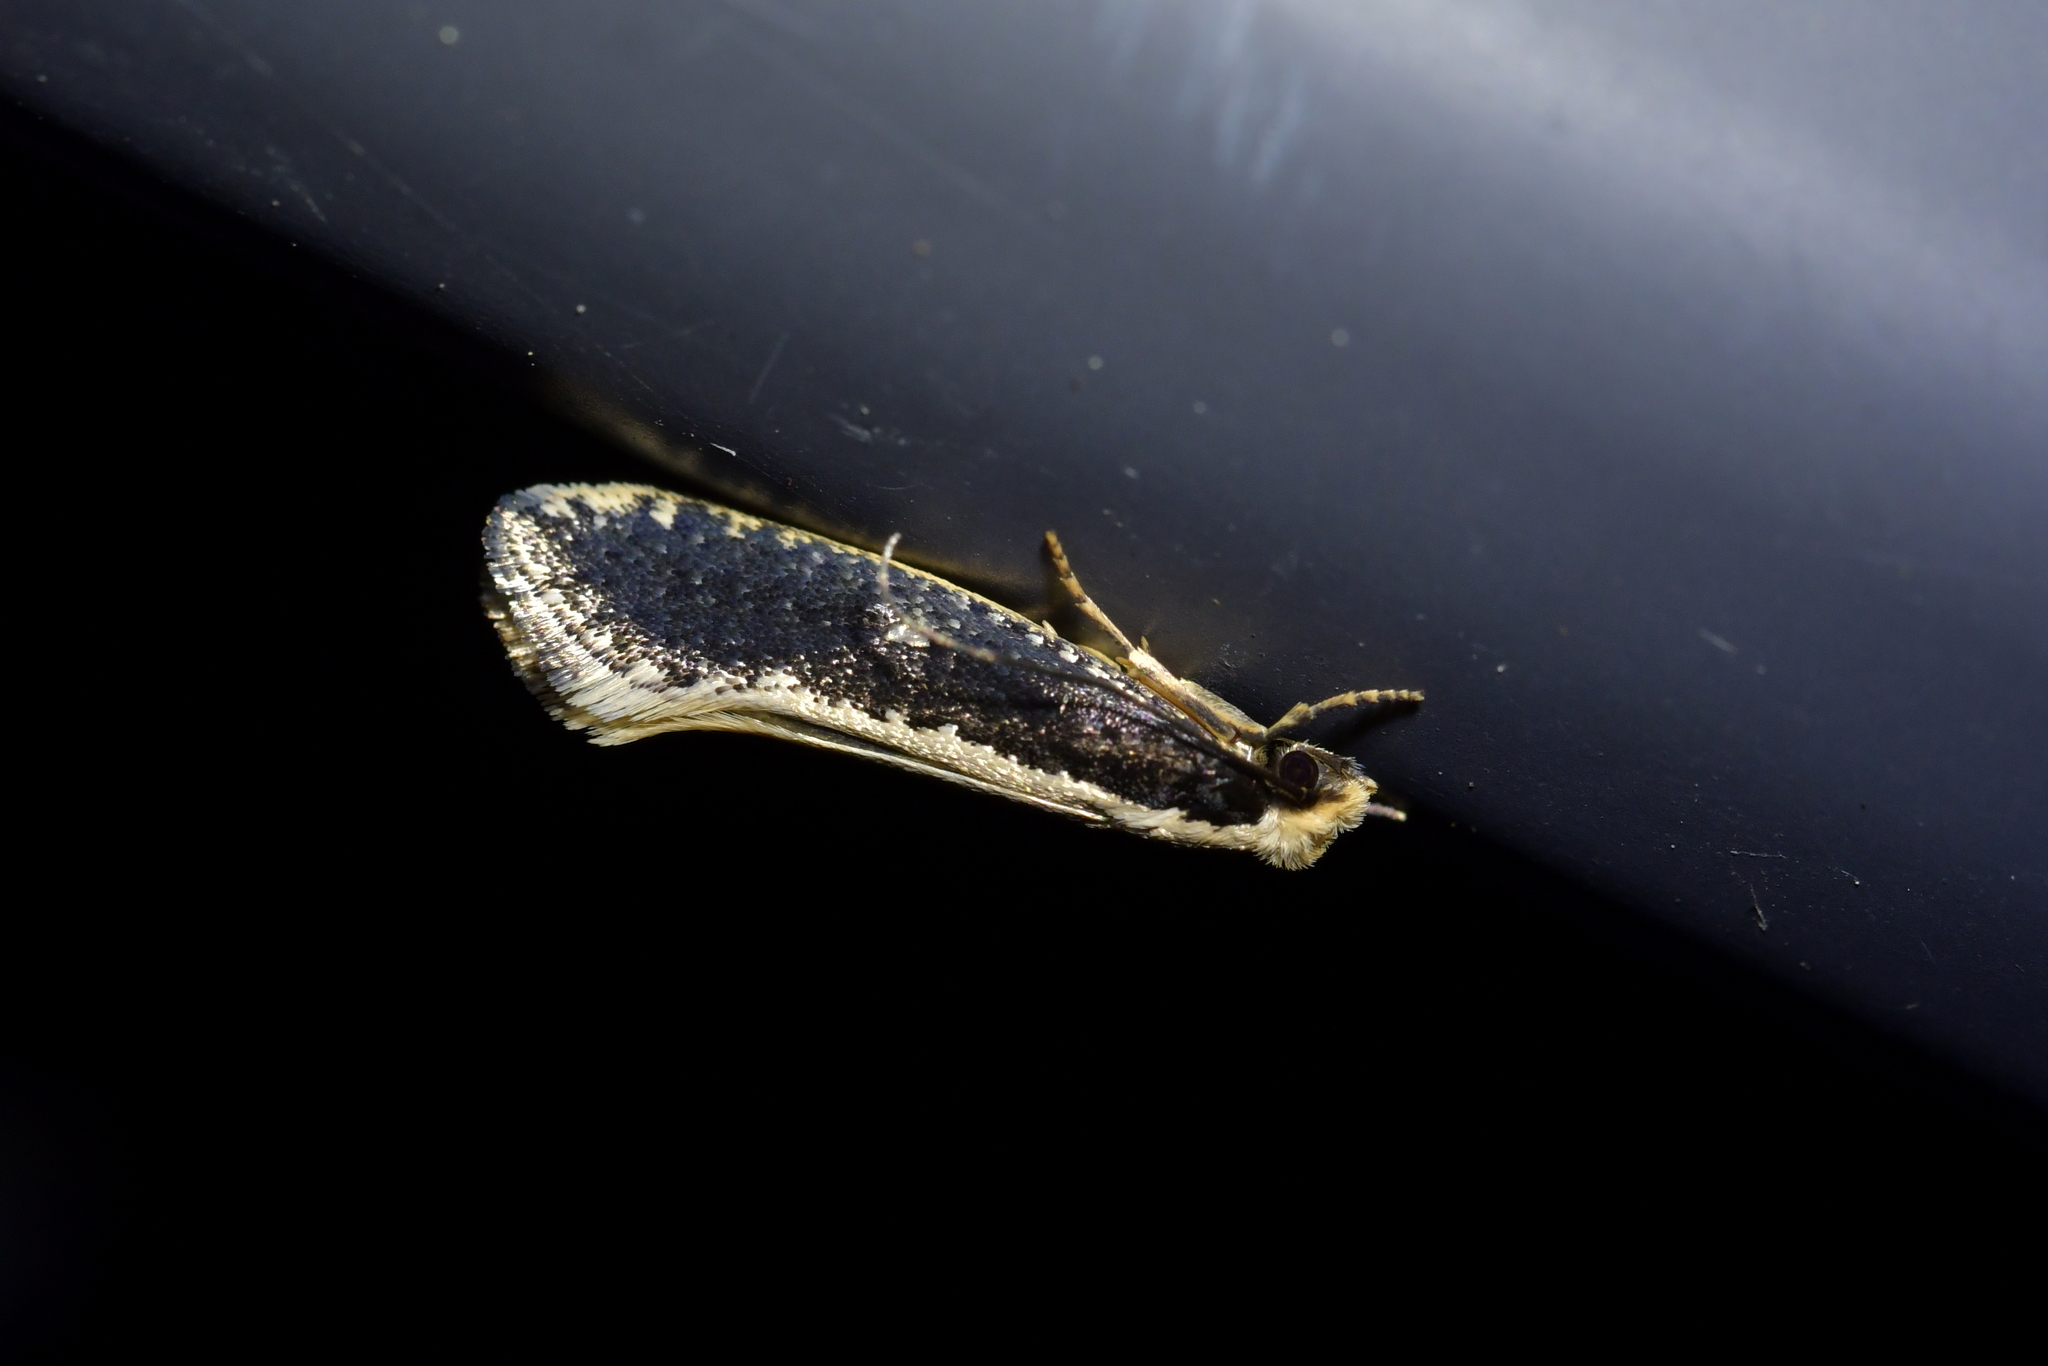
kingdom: Animalia
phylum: Arthropoda
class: Insecta
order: Lepidoptera
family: Tineidae
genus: Monopis
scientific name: Monopis ethelella
